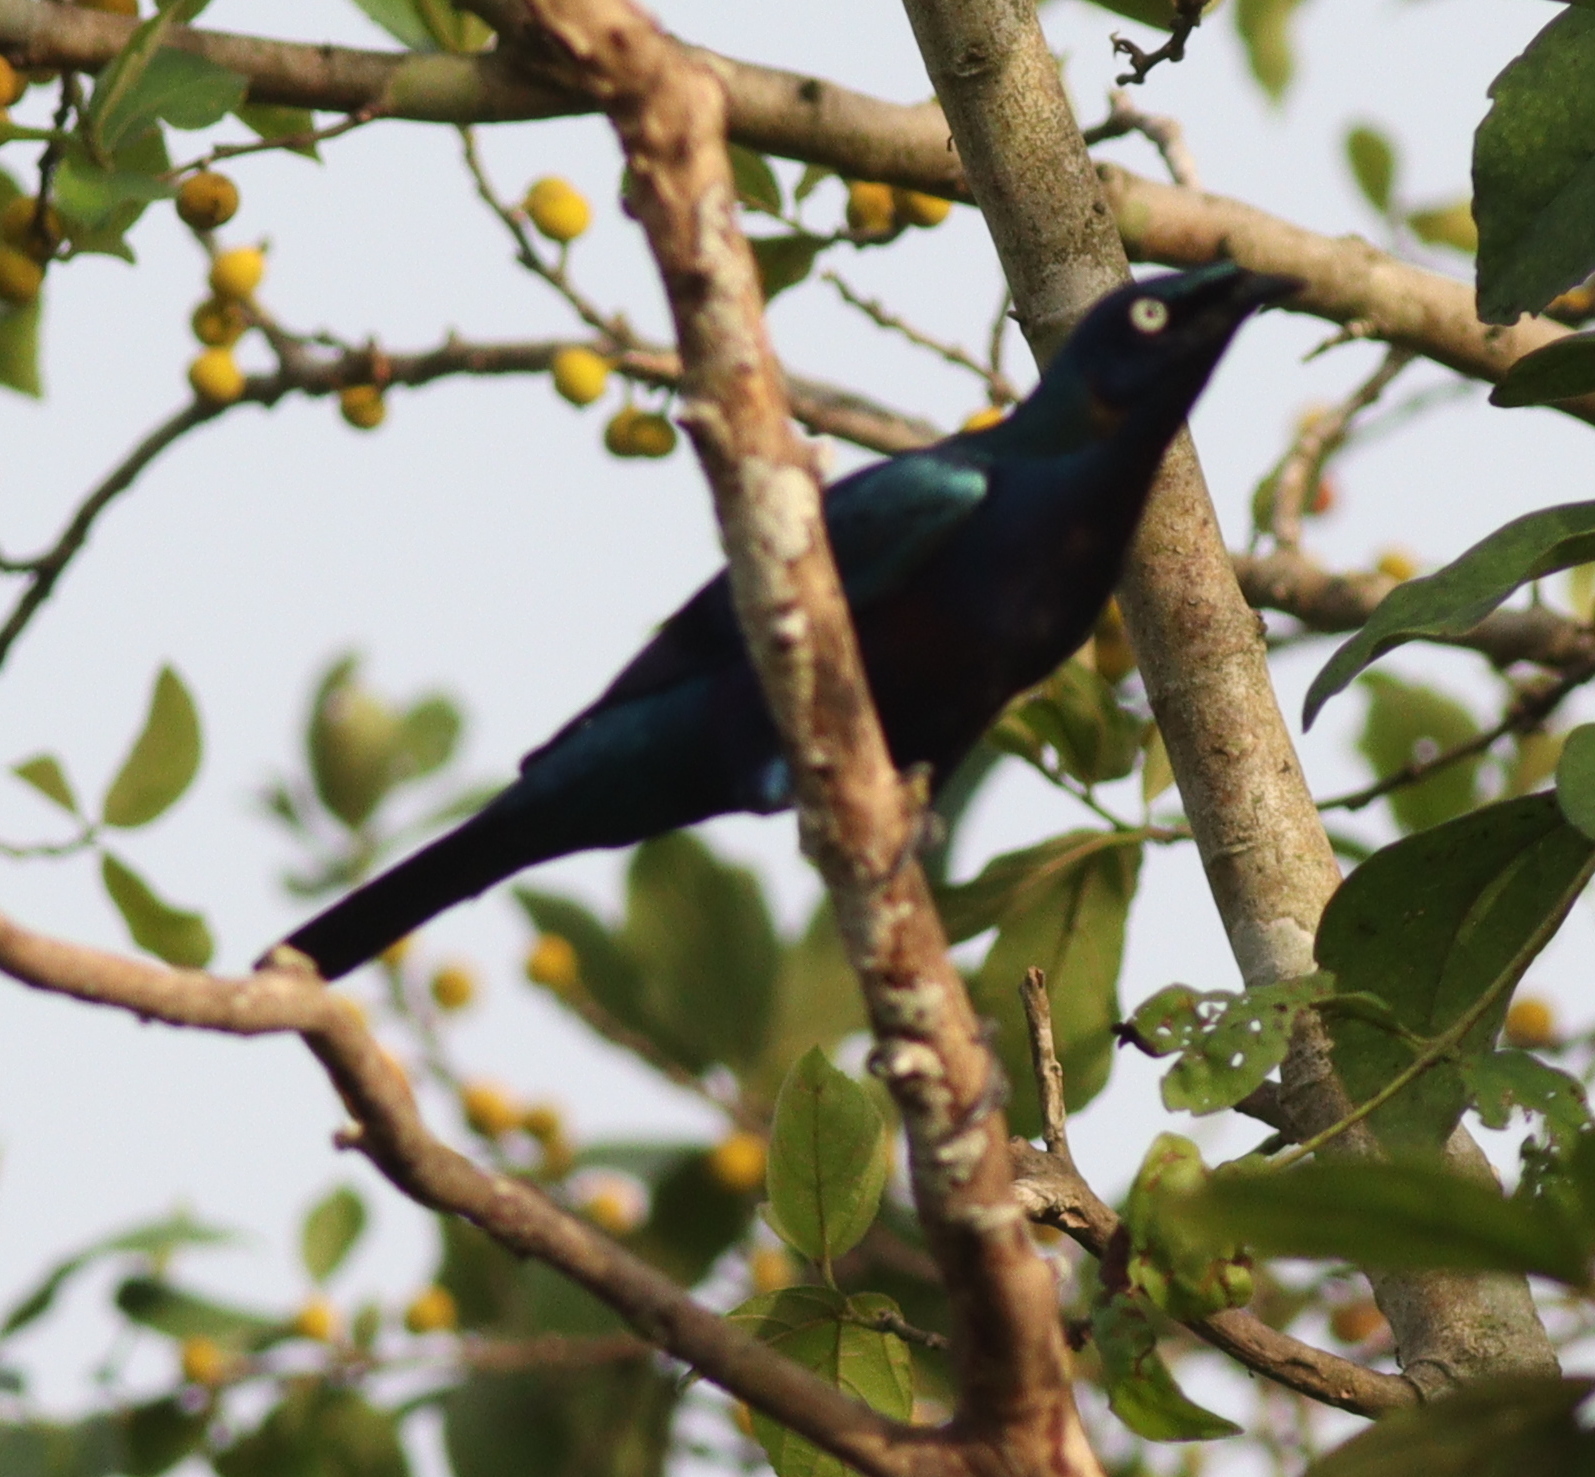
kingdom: Animalia
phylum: Chordata
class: Aves
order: Passeriformes
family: Sturnidae
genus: Lamprotornis
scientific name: Lamprotornis splendidus
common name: Splendid starling
